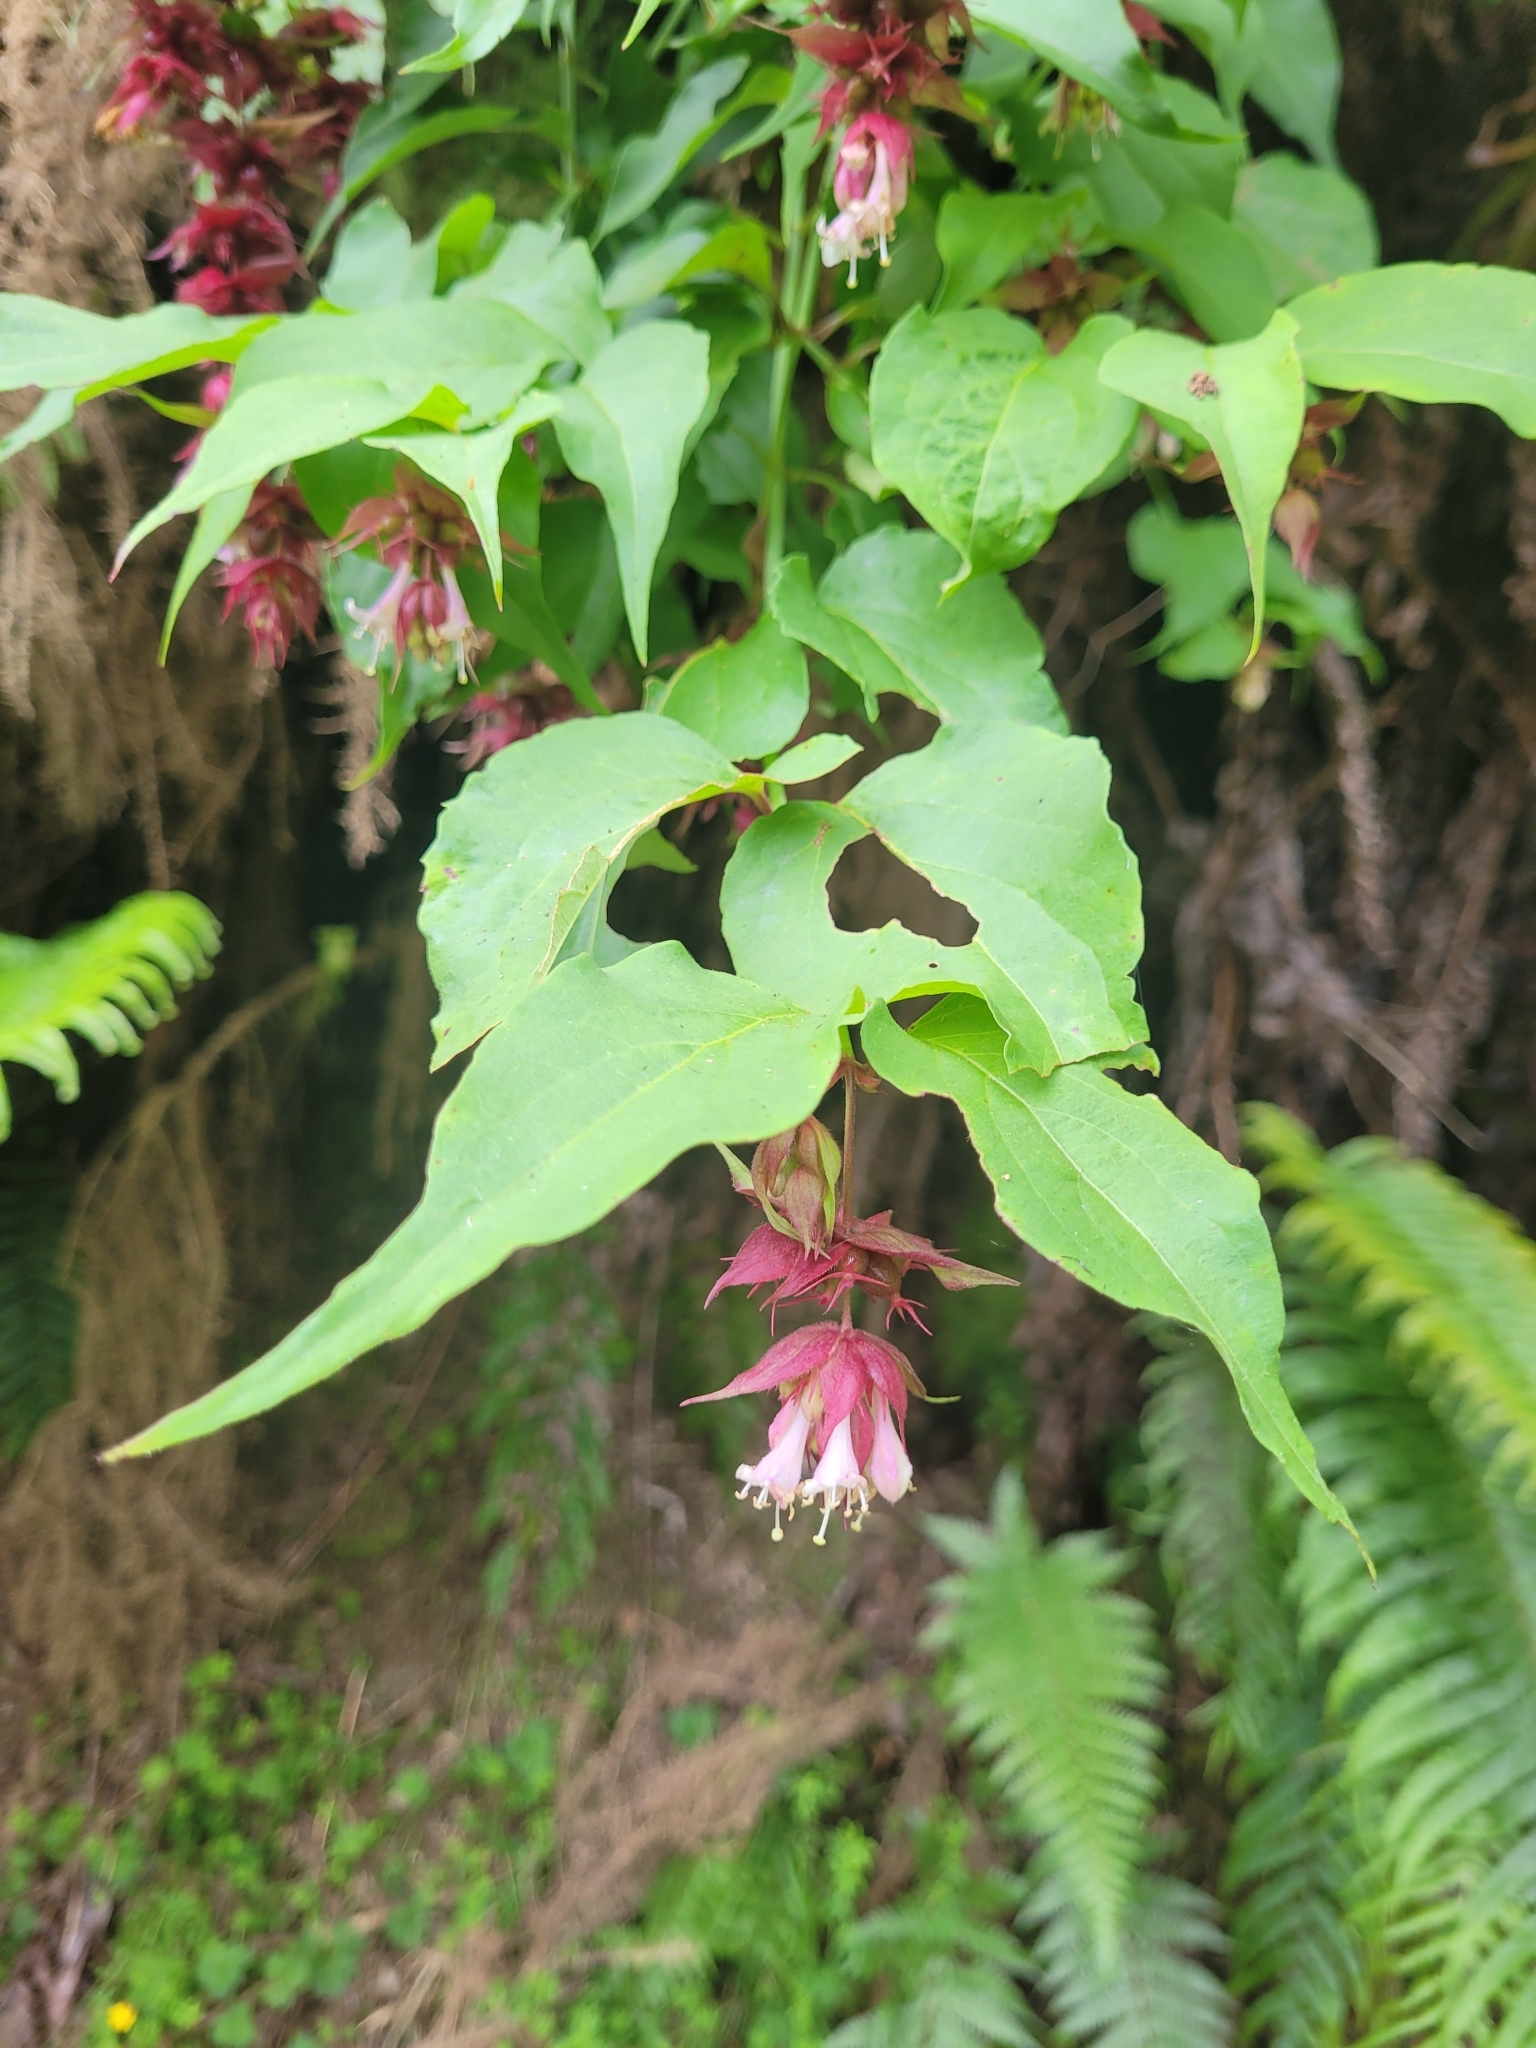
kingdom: Plantae
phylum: Tracheophyta
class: Magnoliopsida
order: Dipsacales
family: Caprifoliaceae
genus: Leycesteria
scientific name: Leycesteria formosa
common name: Himalayan honeysuckle
